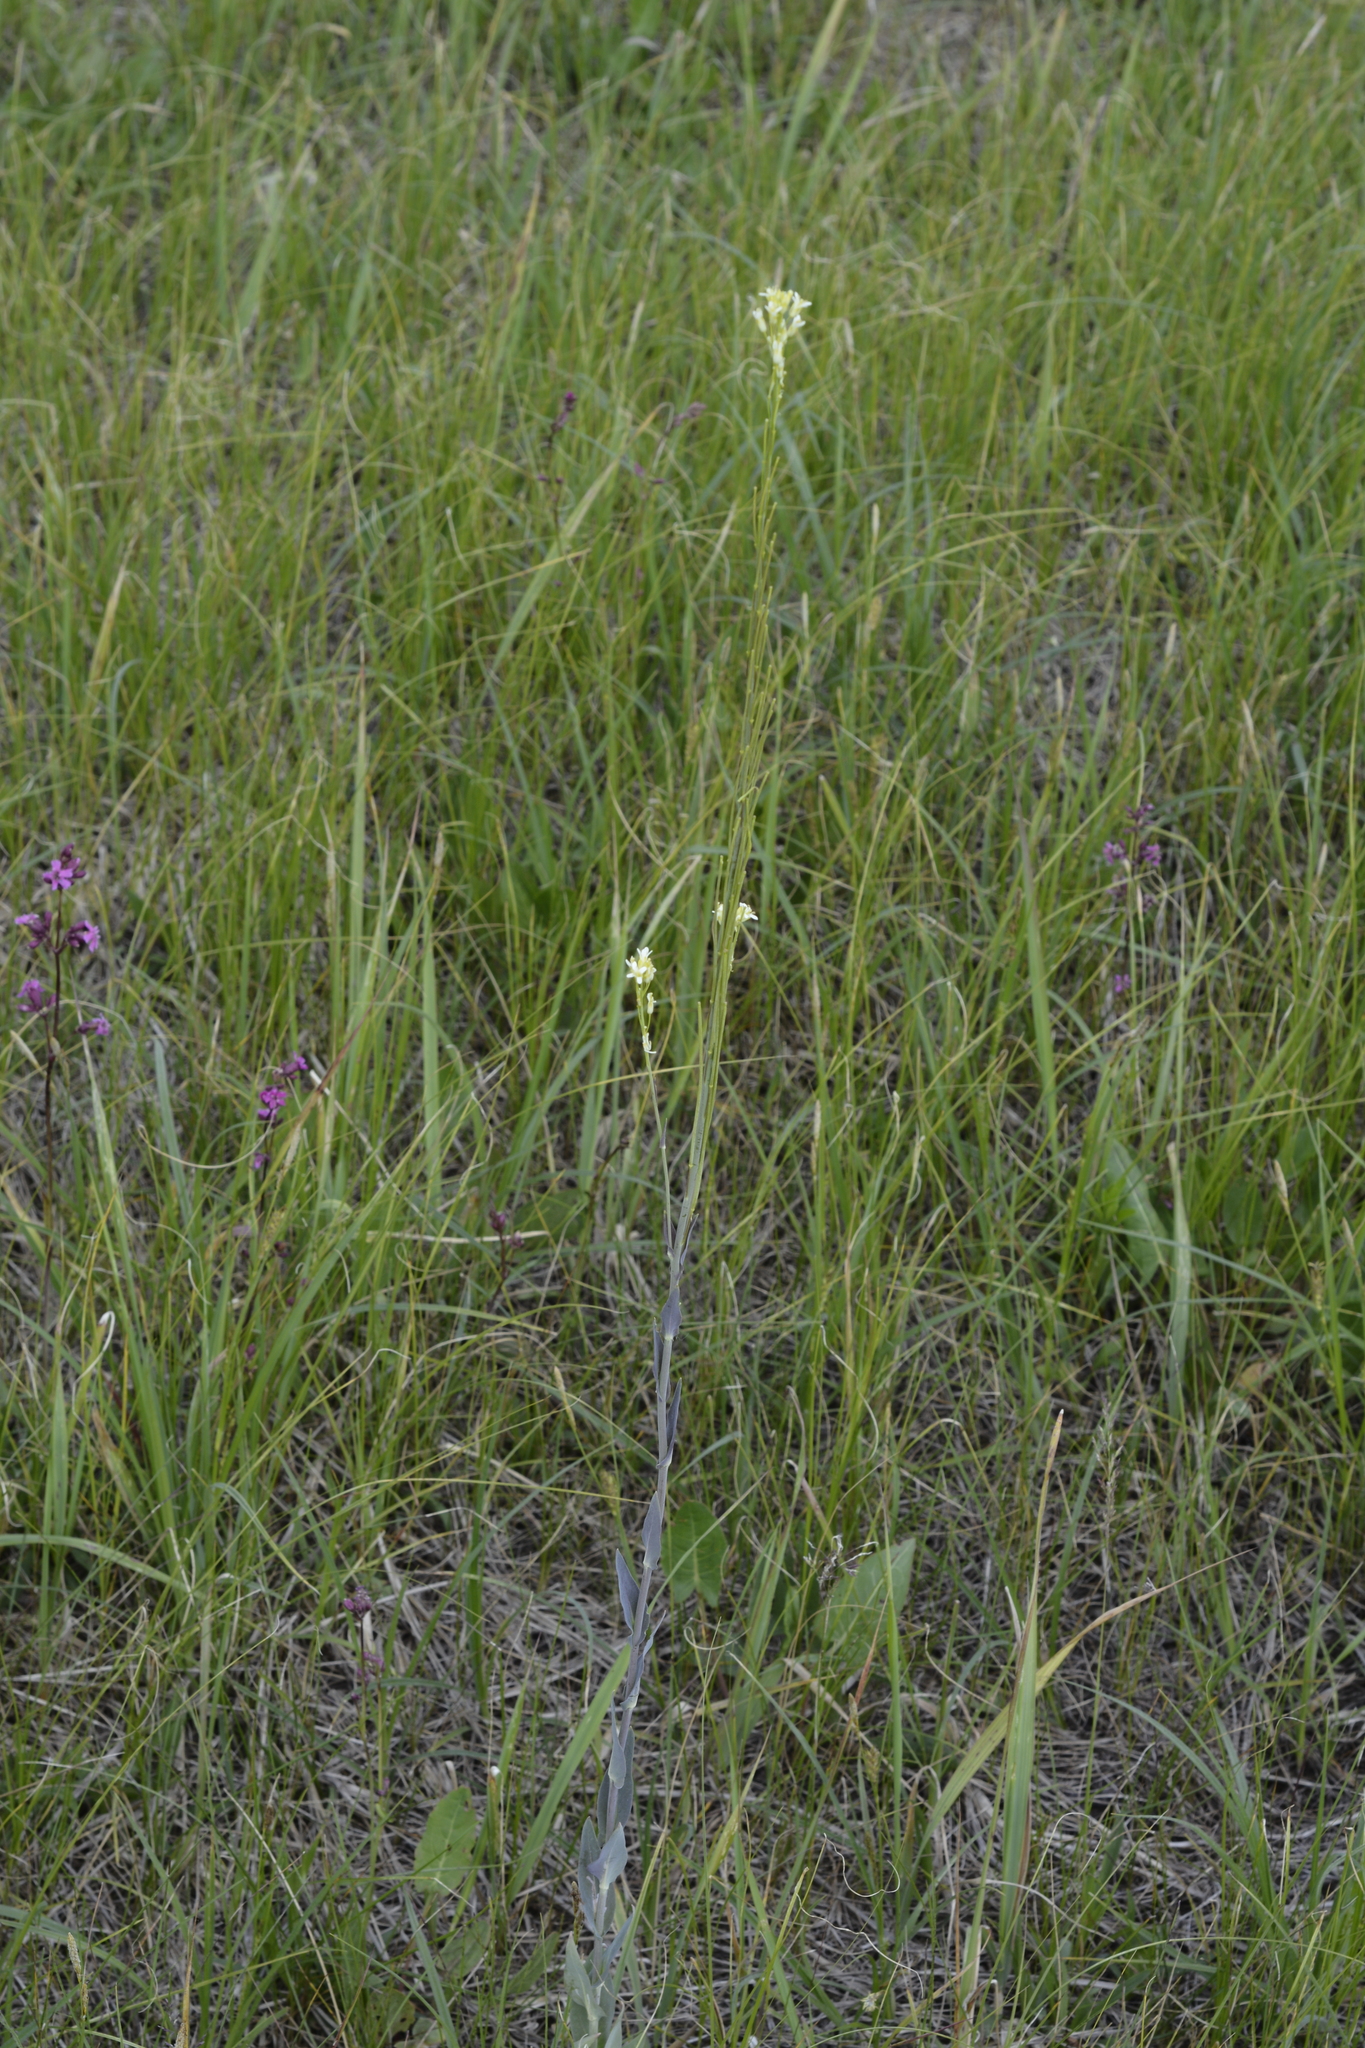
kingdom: Plantae
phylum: Tracheophyta
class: Magnoliopsida
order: Brassicales
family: Brassicaceae
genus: Turritis
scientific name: Turritis glabra
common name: Tower rockcress
